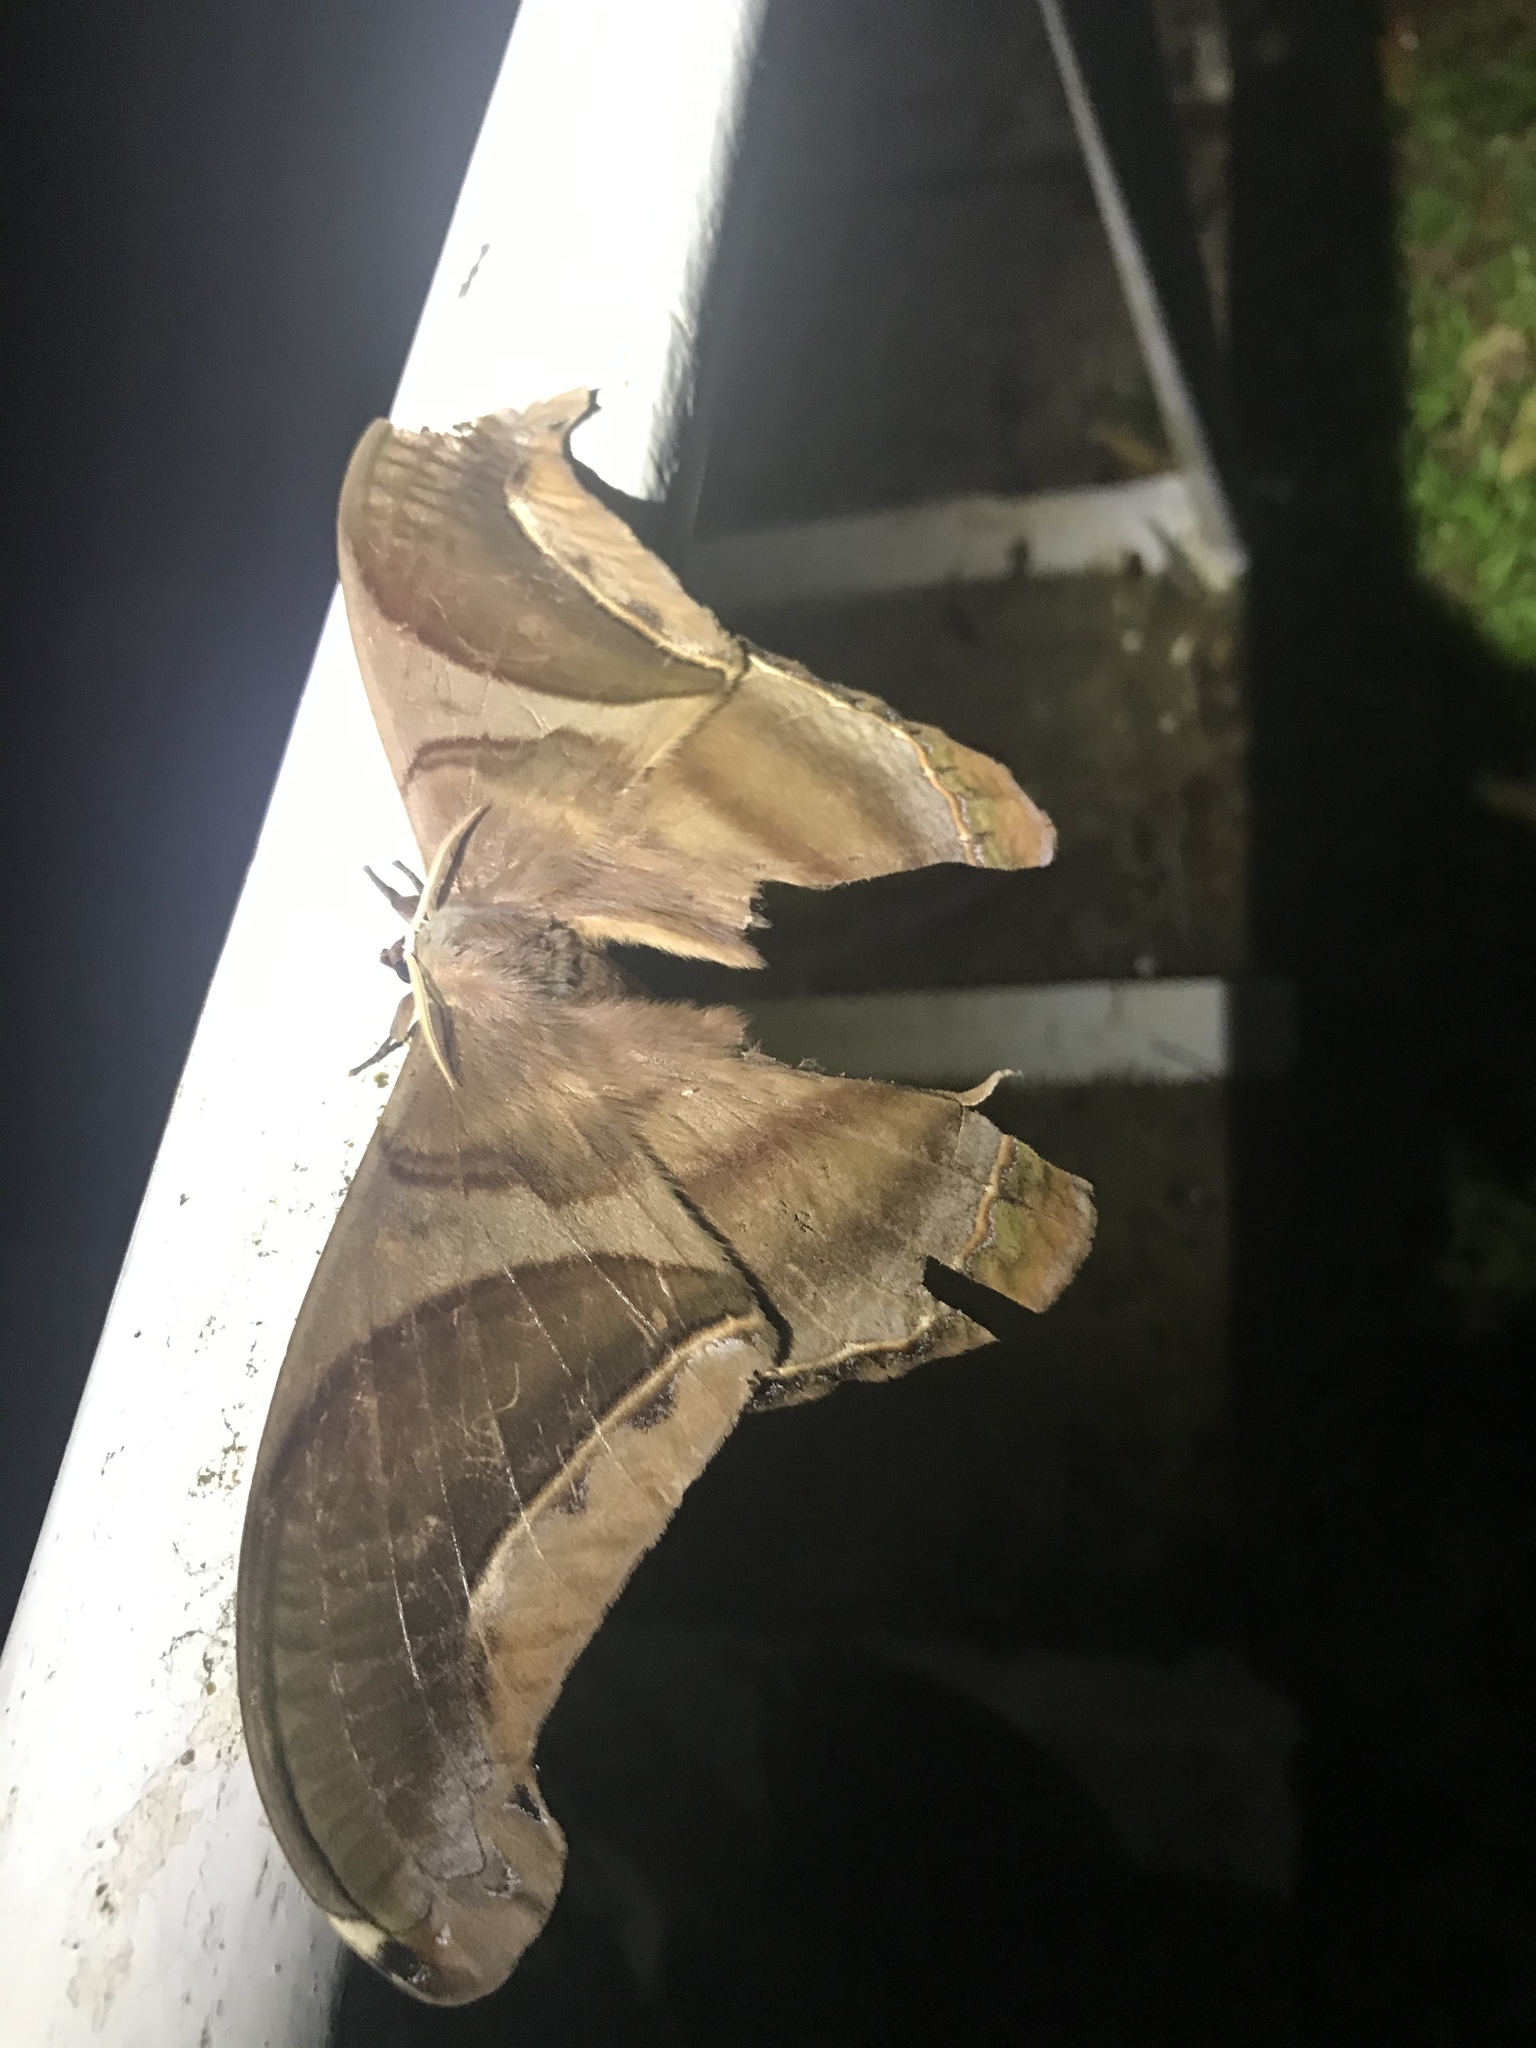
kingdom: Animalia
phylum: Arthropoda
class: Insecta
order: Lepidoptera
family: Saturniidae
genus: Rhescyntis
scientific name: Rhescyntis hippodamia
